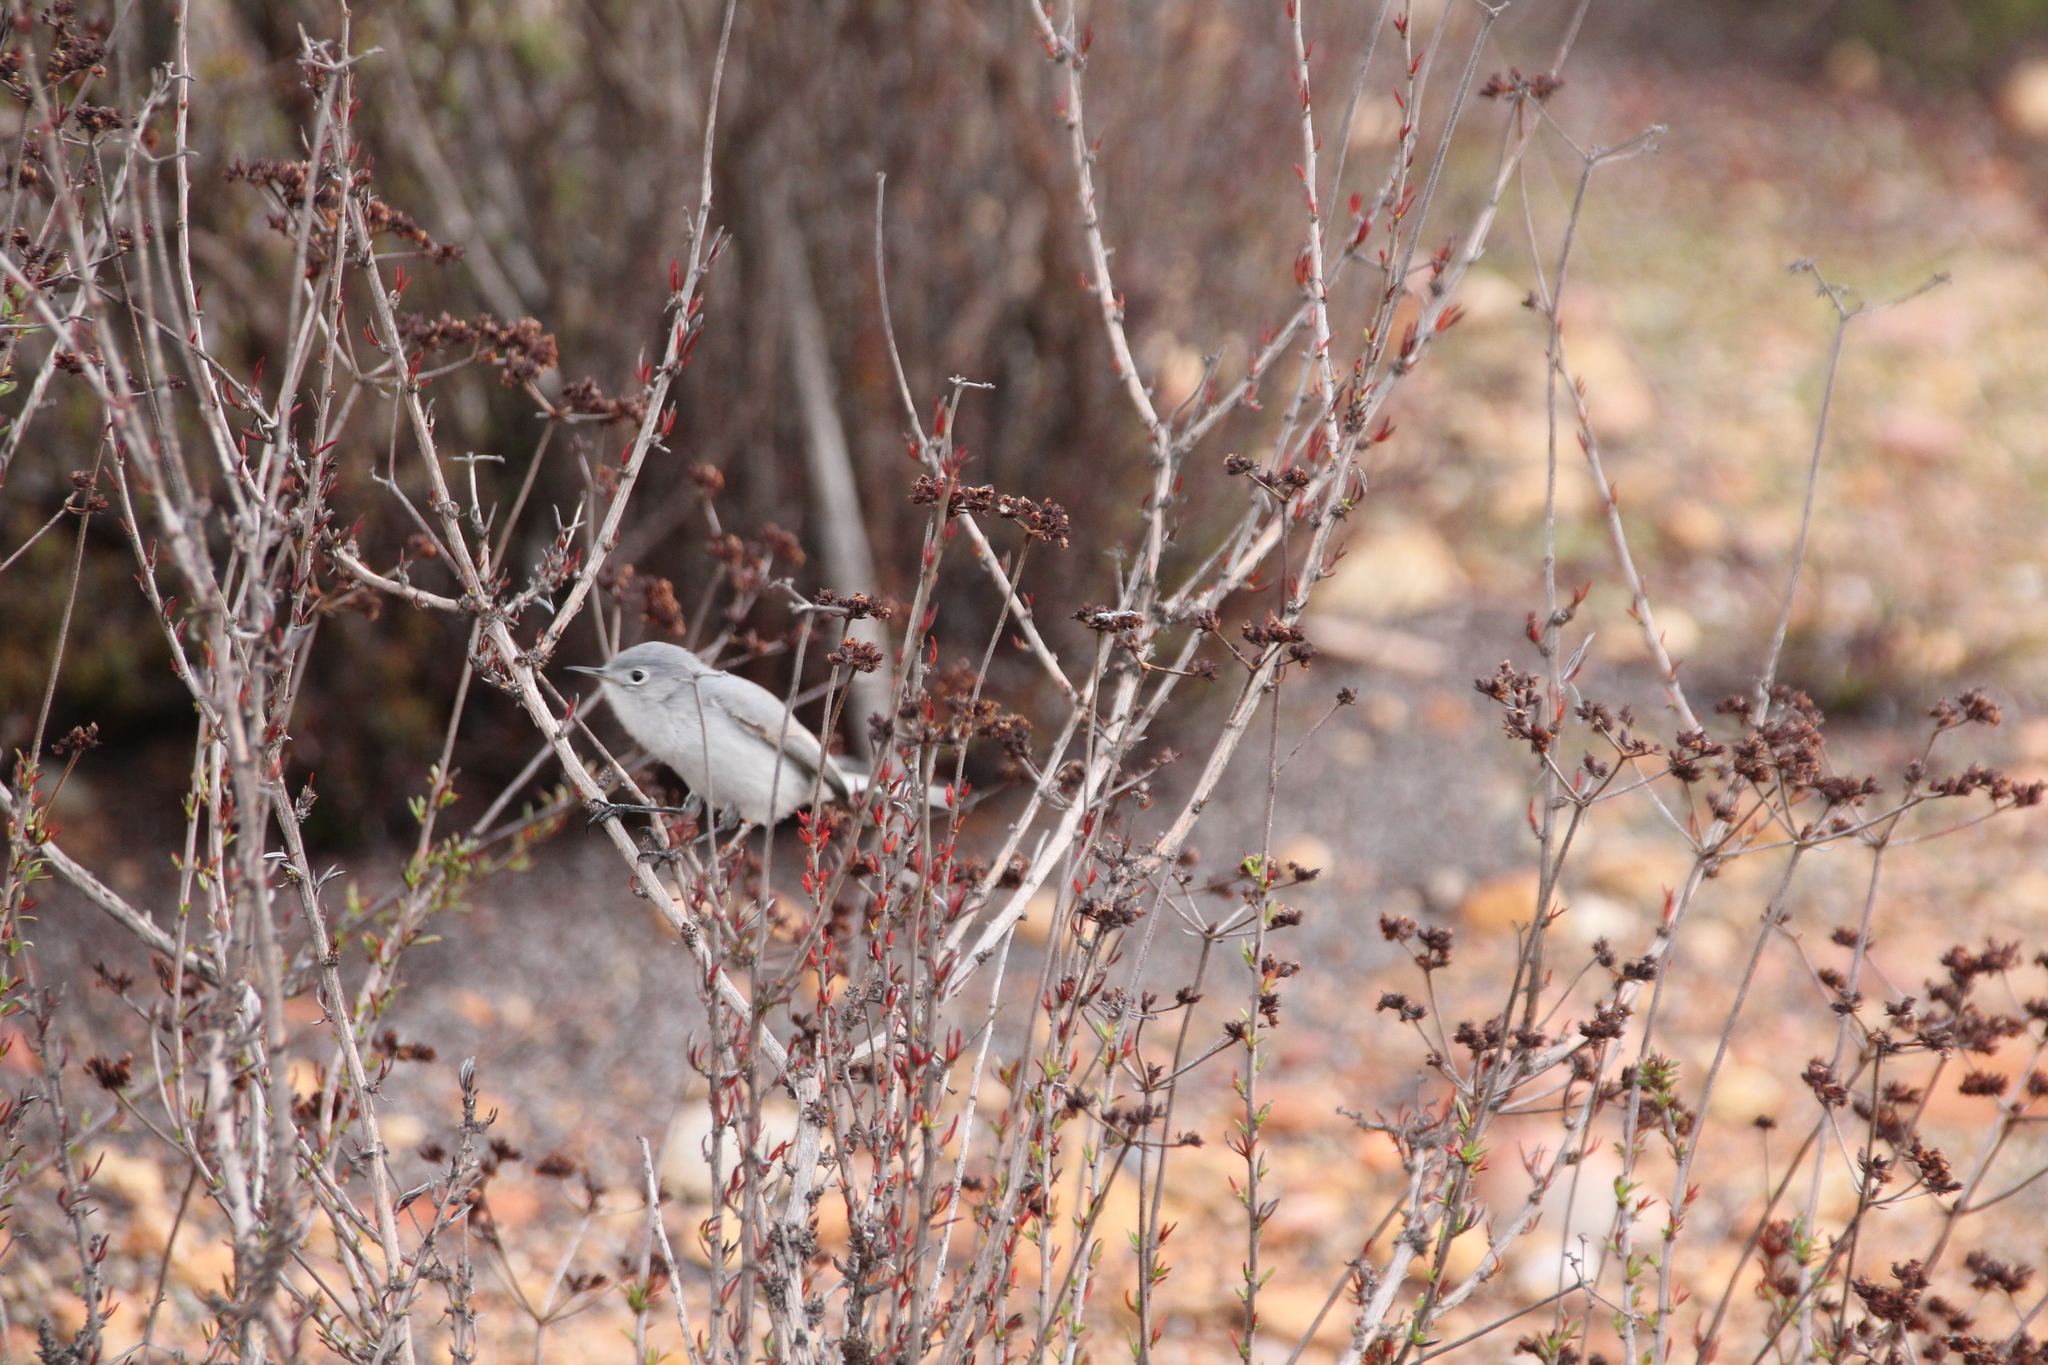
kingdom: Animalia
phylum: Chordata
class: Aves
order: Passeriformes
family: Polioptilidae
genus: Polioptila
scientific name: Polioptila caerulea
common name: Blue-gray gnatcatcher
